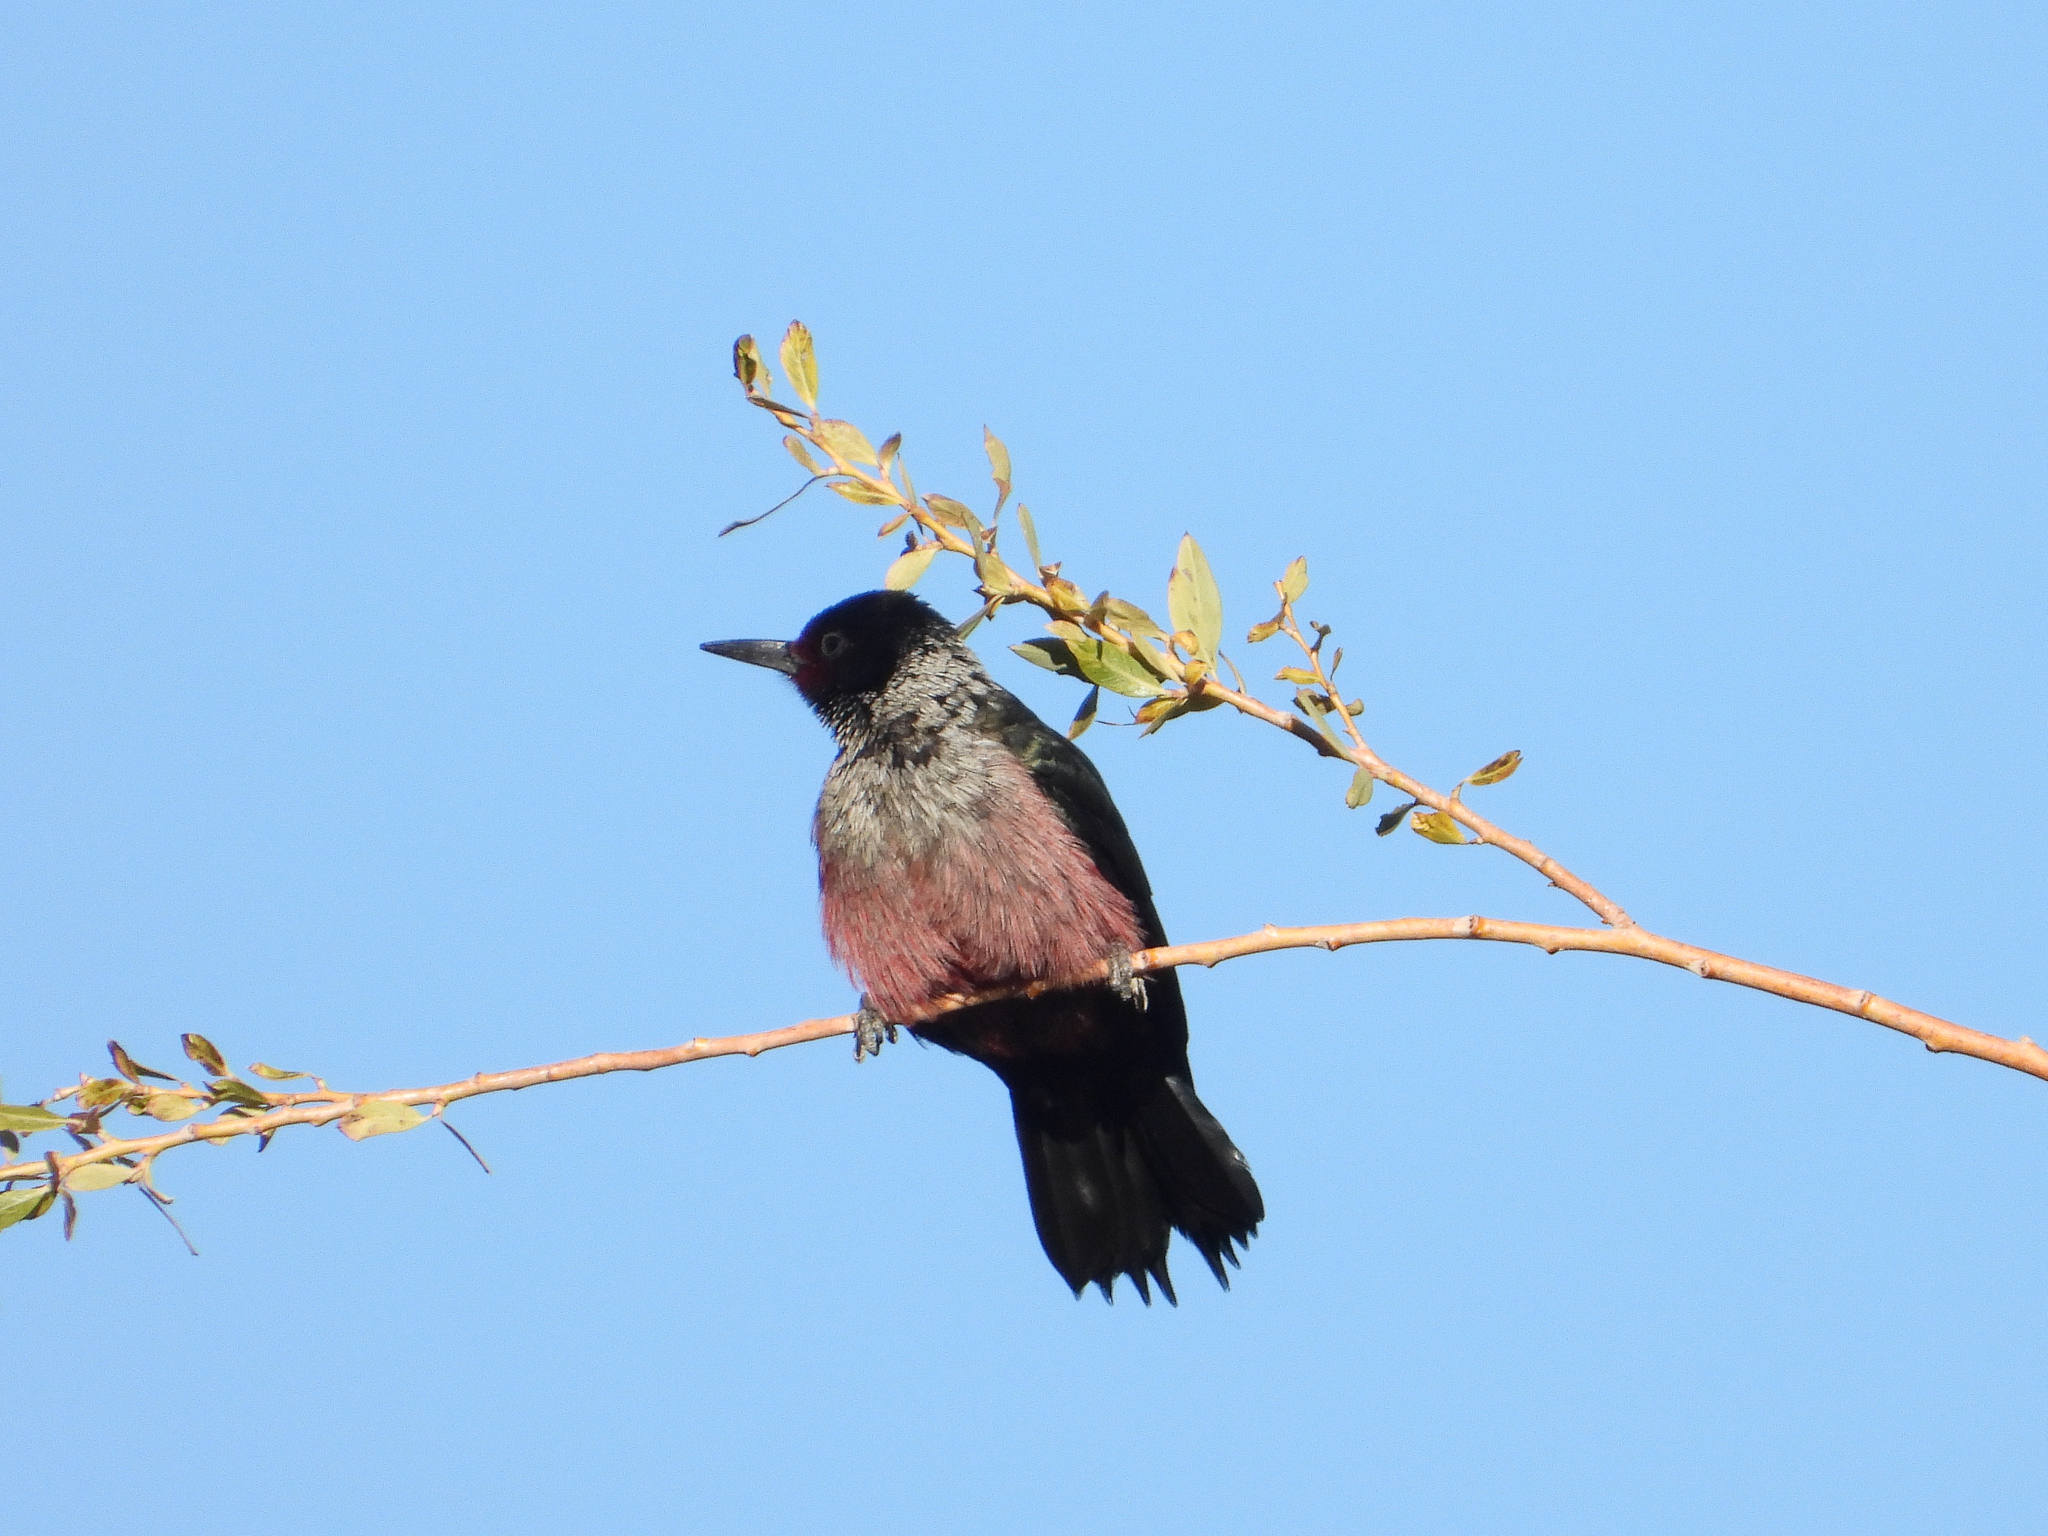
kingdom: Animalia
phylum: Chordata
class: Aves
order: Piciformes
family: Picidae
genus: Melanerpes
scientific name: Melanerpes lewis
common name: Lewis's woodpecker
